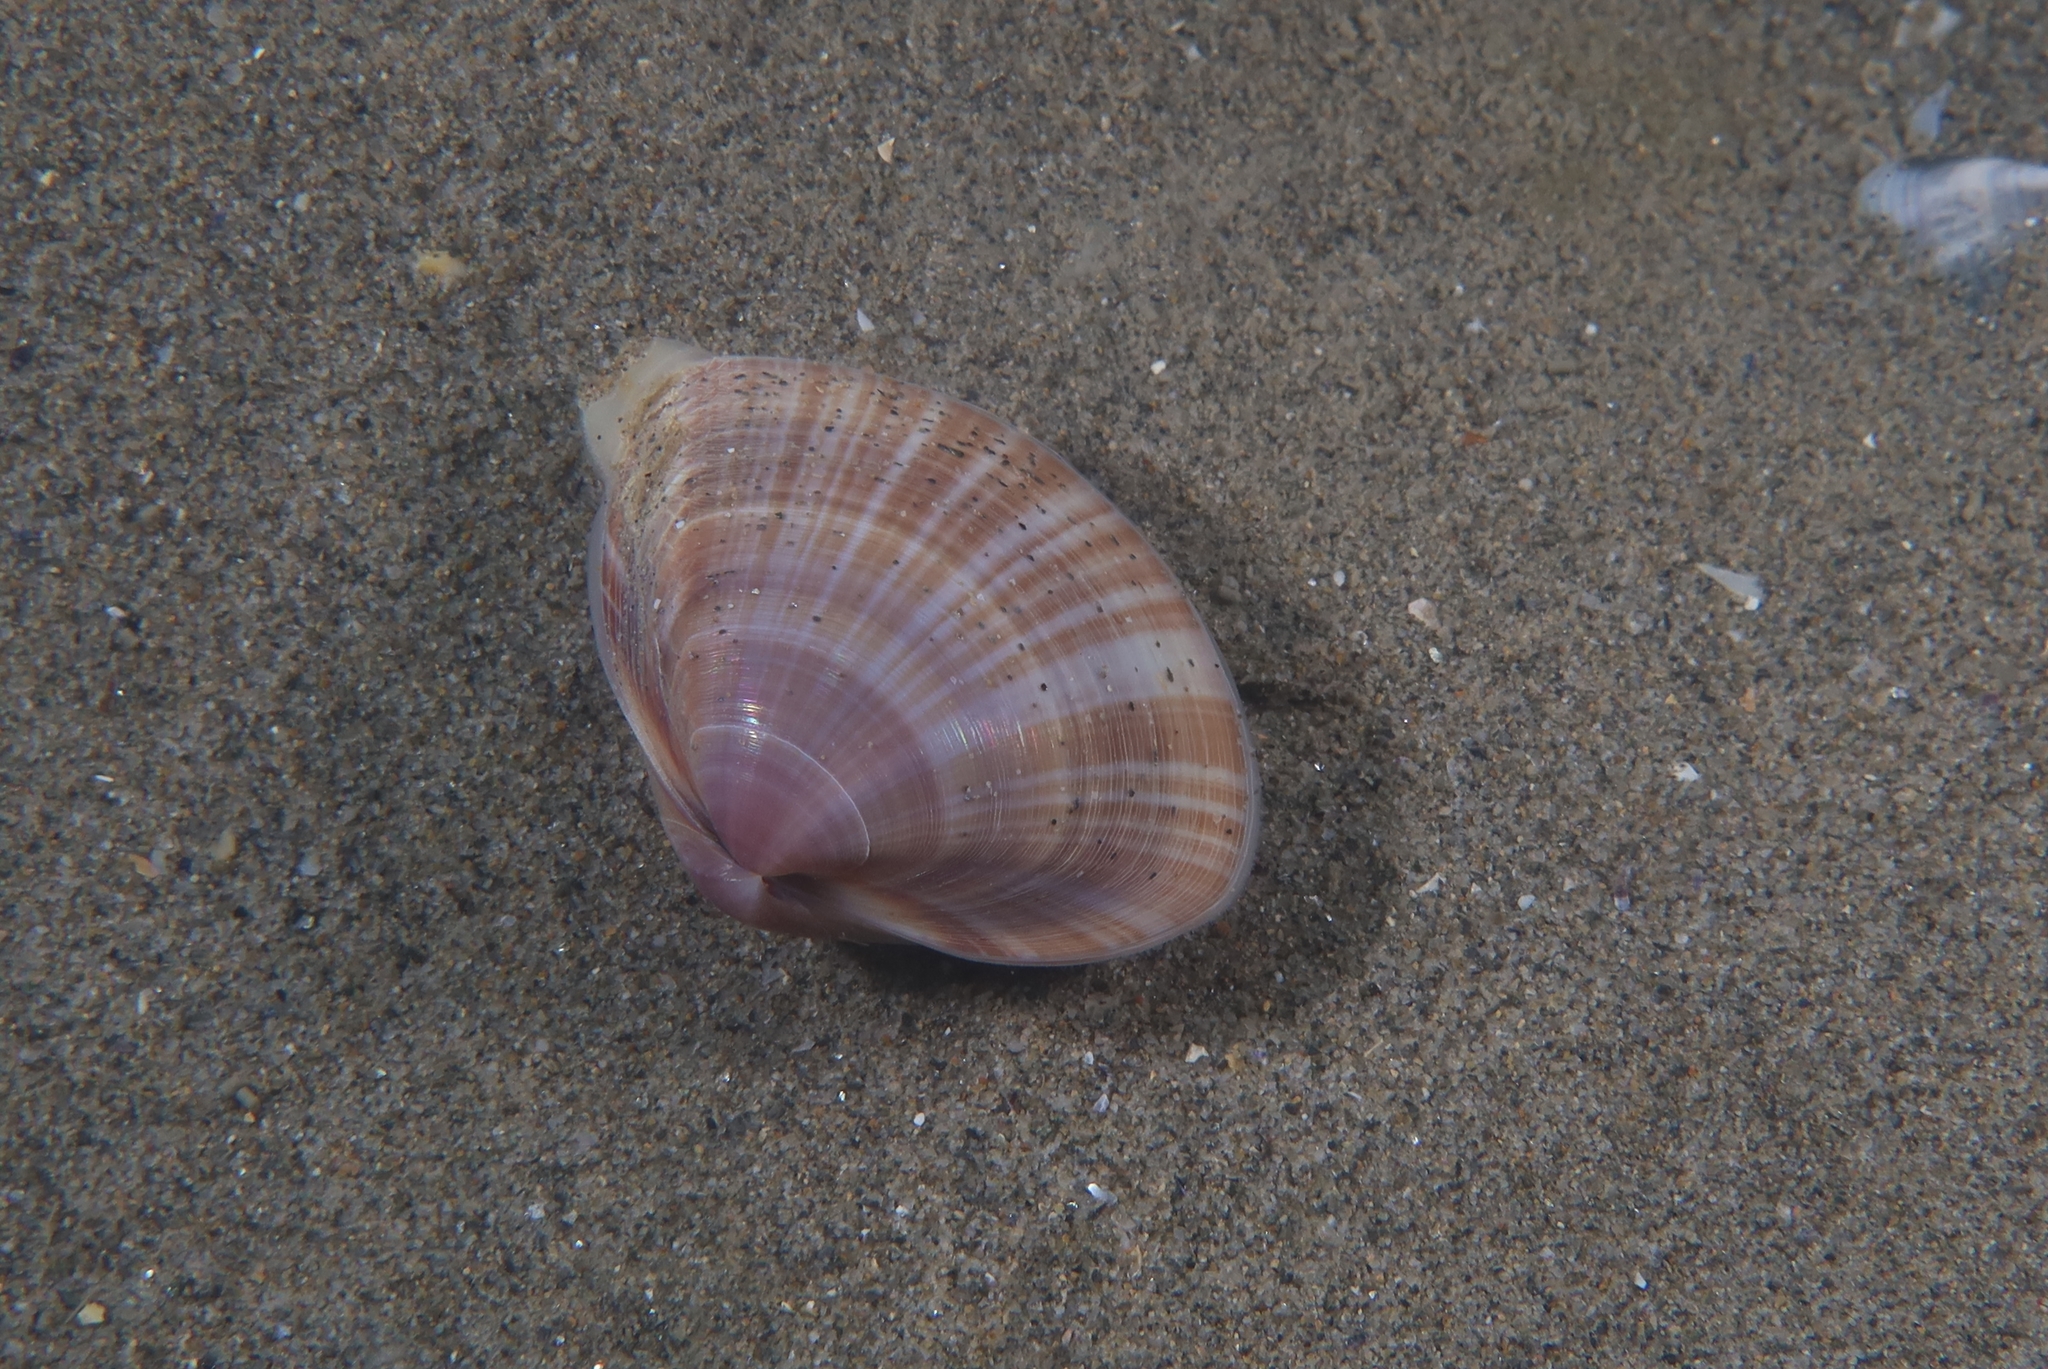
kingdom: Animalia
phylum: Mollusca
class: Bivalvia
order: Venerida
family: Mactridae
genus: Mactra
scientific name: Mactra stultorum
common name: Rayed trough shell
